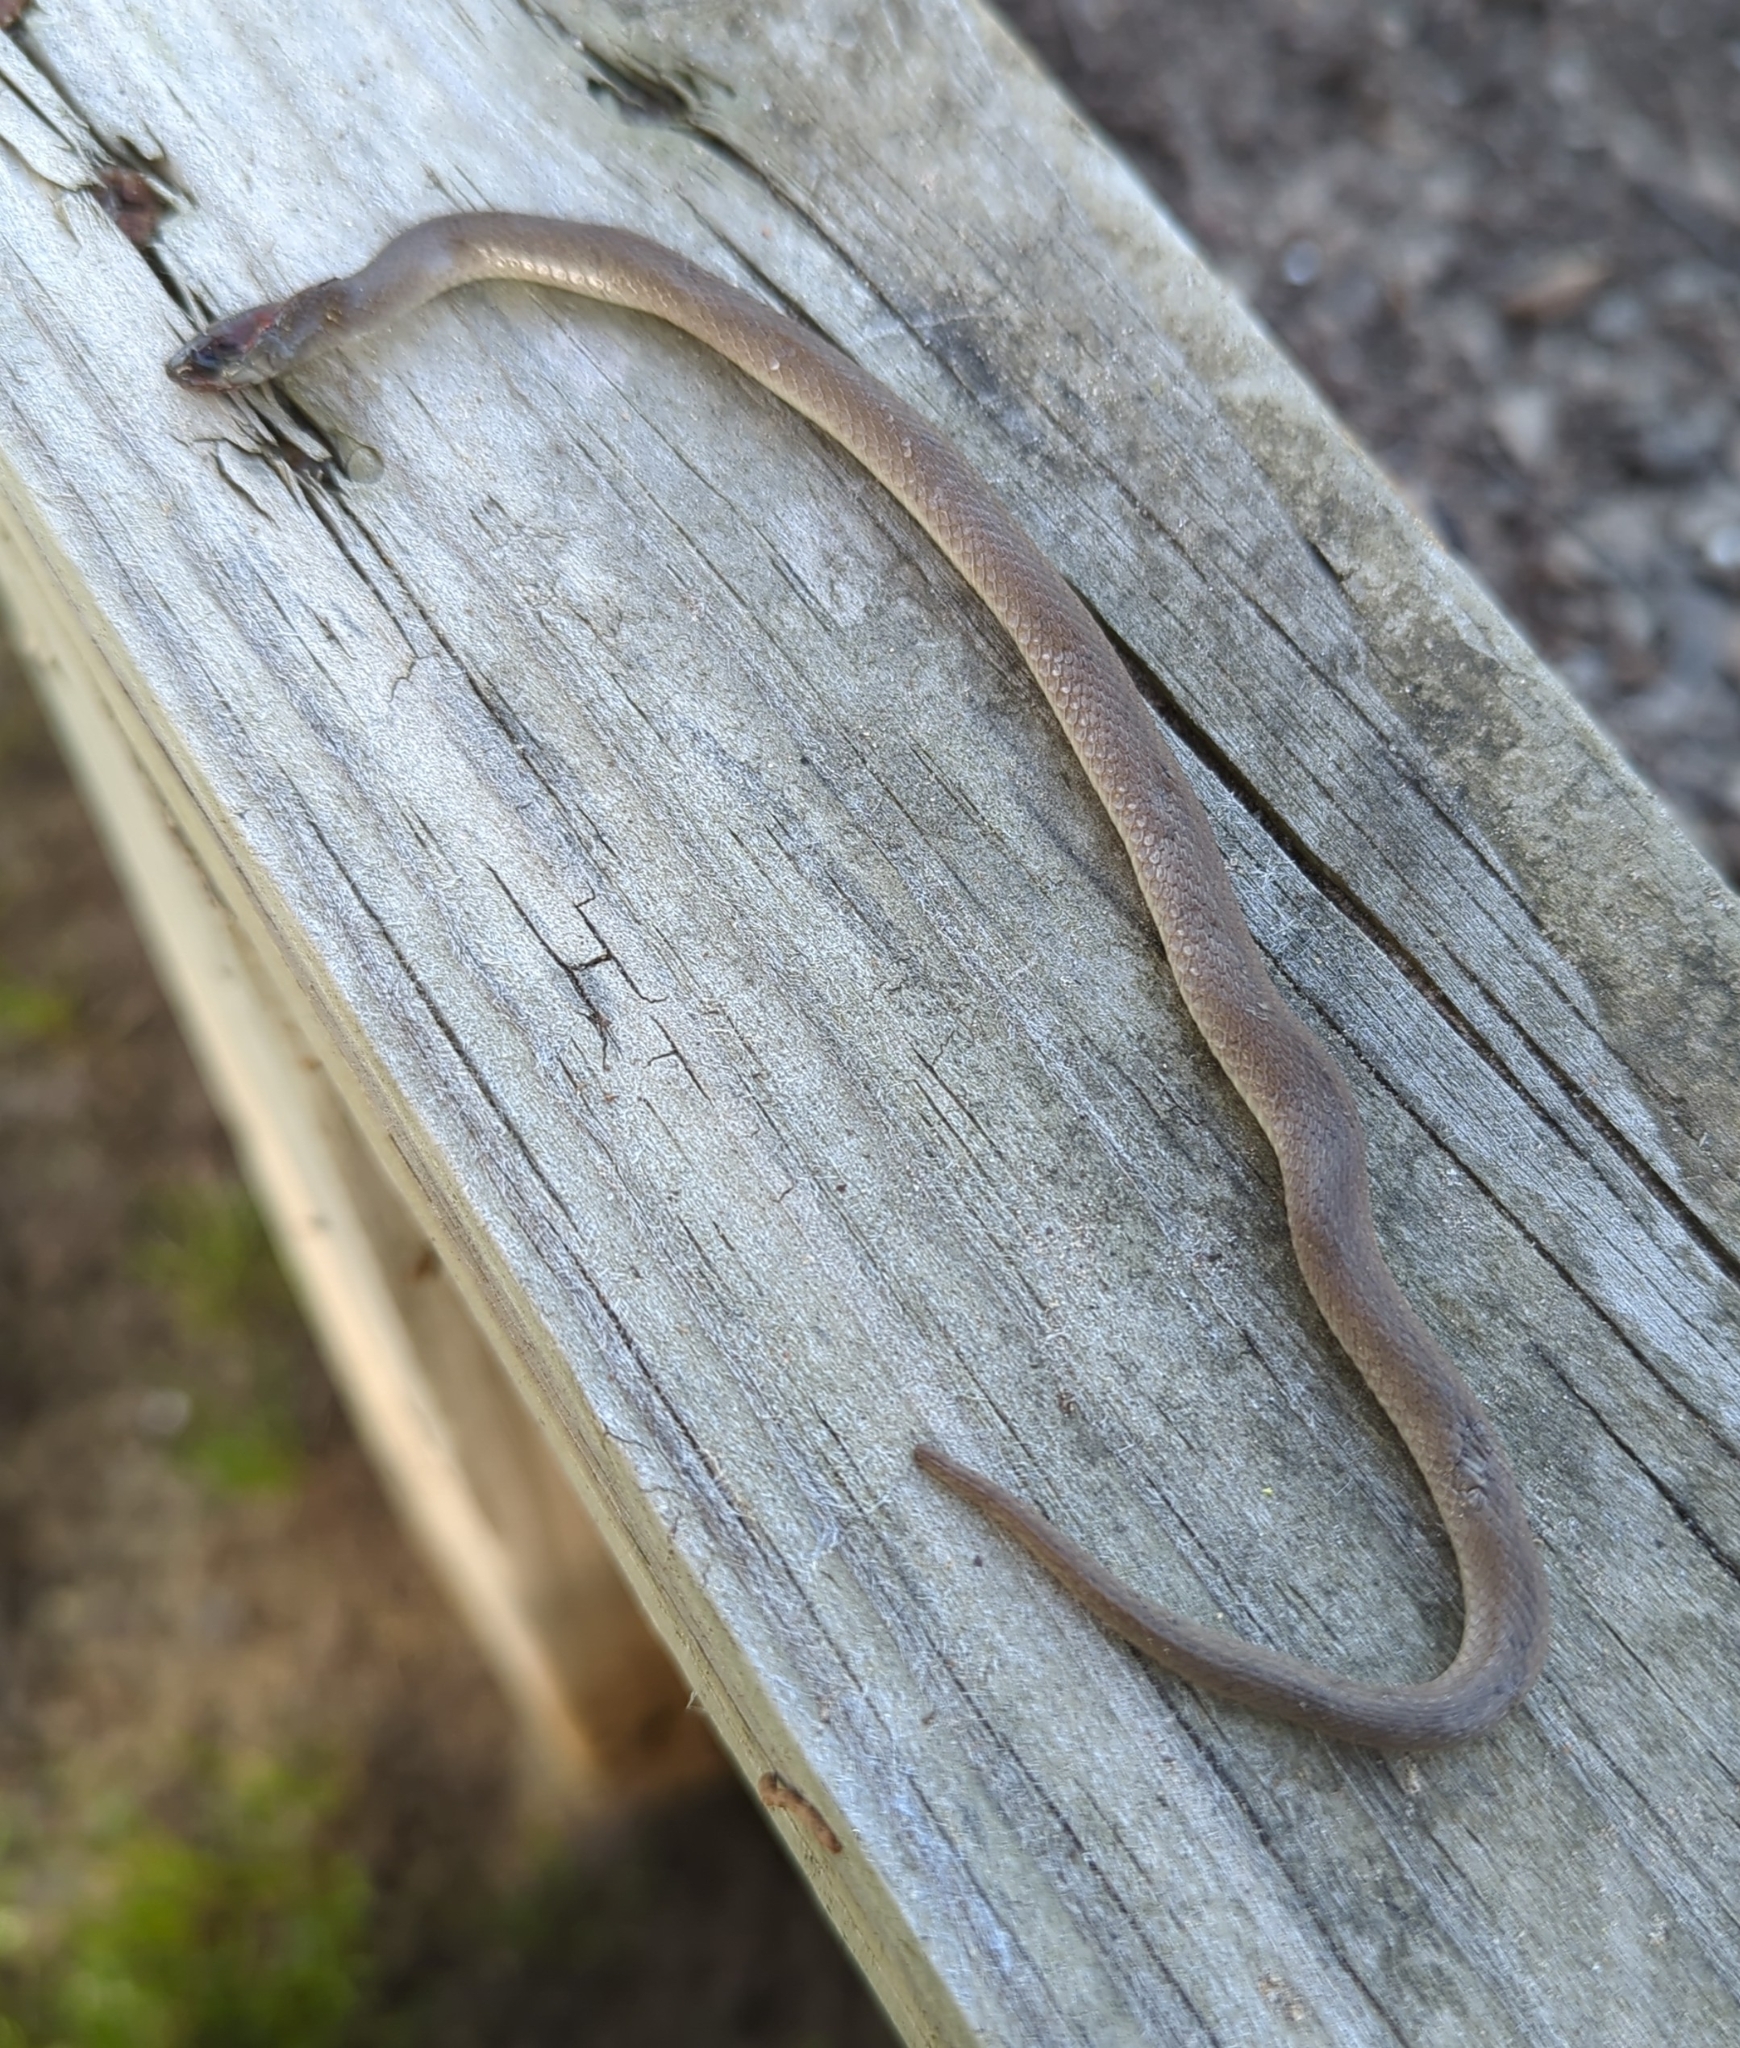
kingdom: Animalia
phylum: Chordata
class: Squamata
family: Colubridae
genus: Haldea
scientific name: Haldea striatula
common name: Rough earth snake
